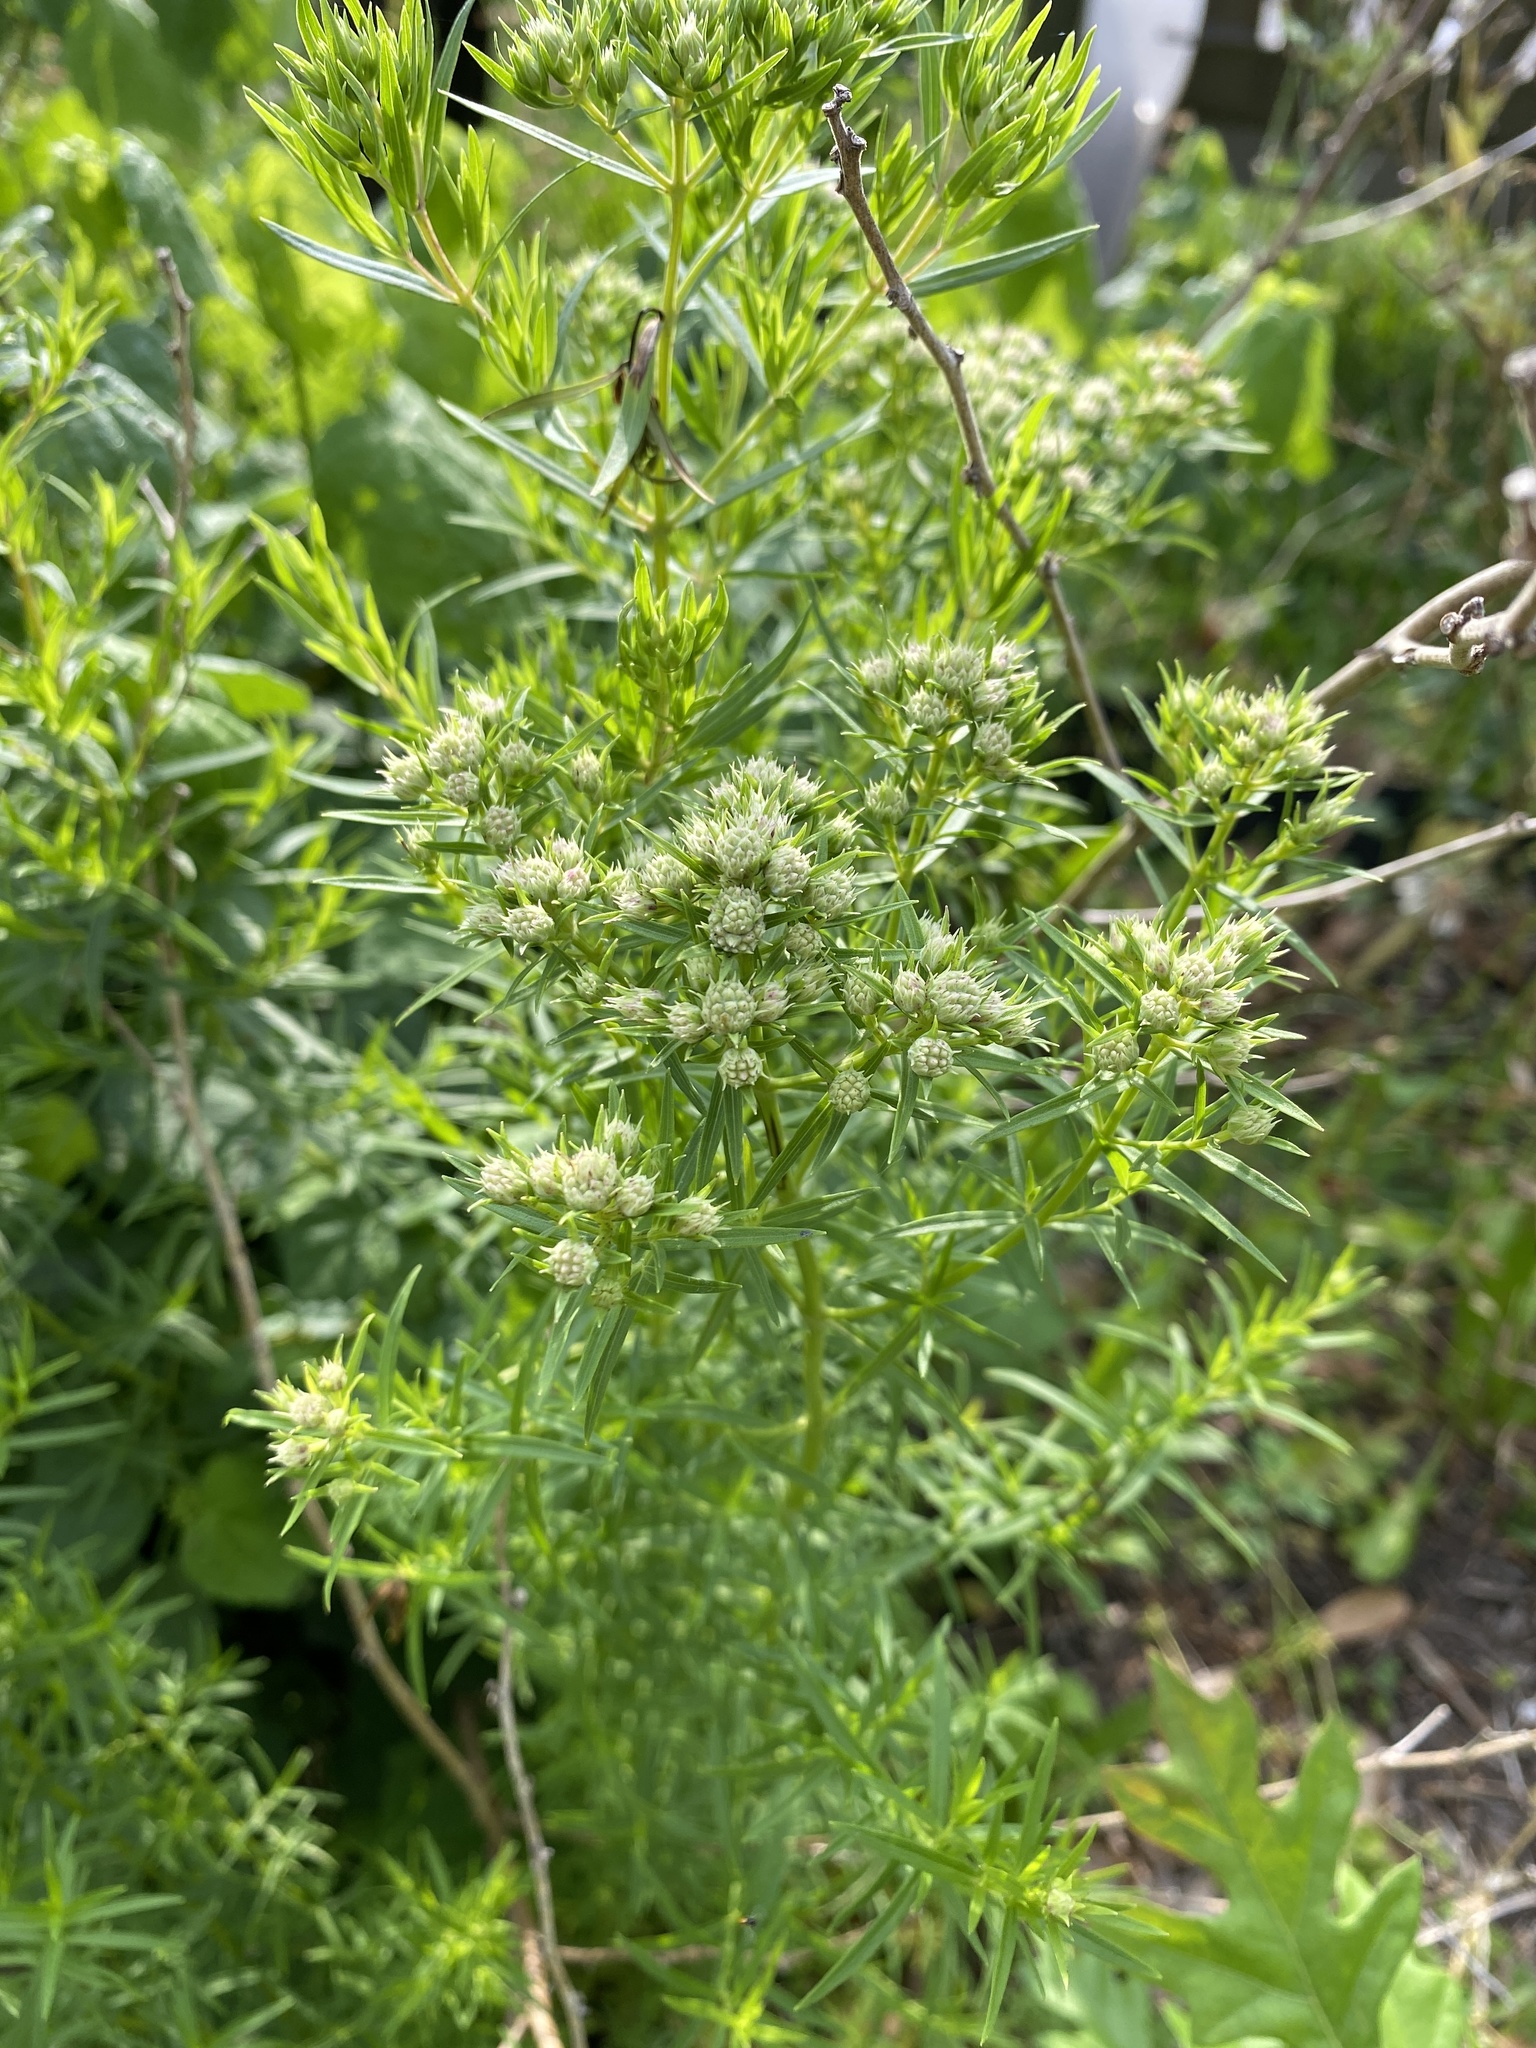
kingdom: Plantae
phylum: Tracheophyta
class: Magnoliopsida
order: Lamiales
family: Lamiaceae
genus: Pycnanthemum
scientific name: Pycnanthemum tenuifolium
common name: Narrow-leaf mountain-mint
